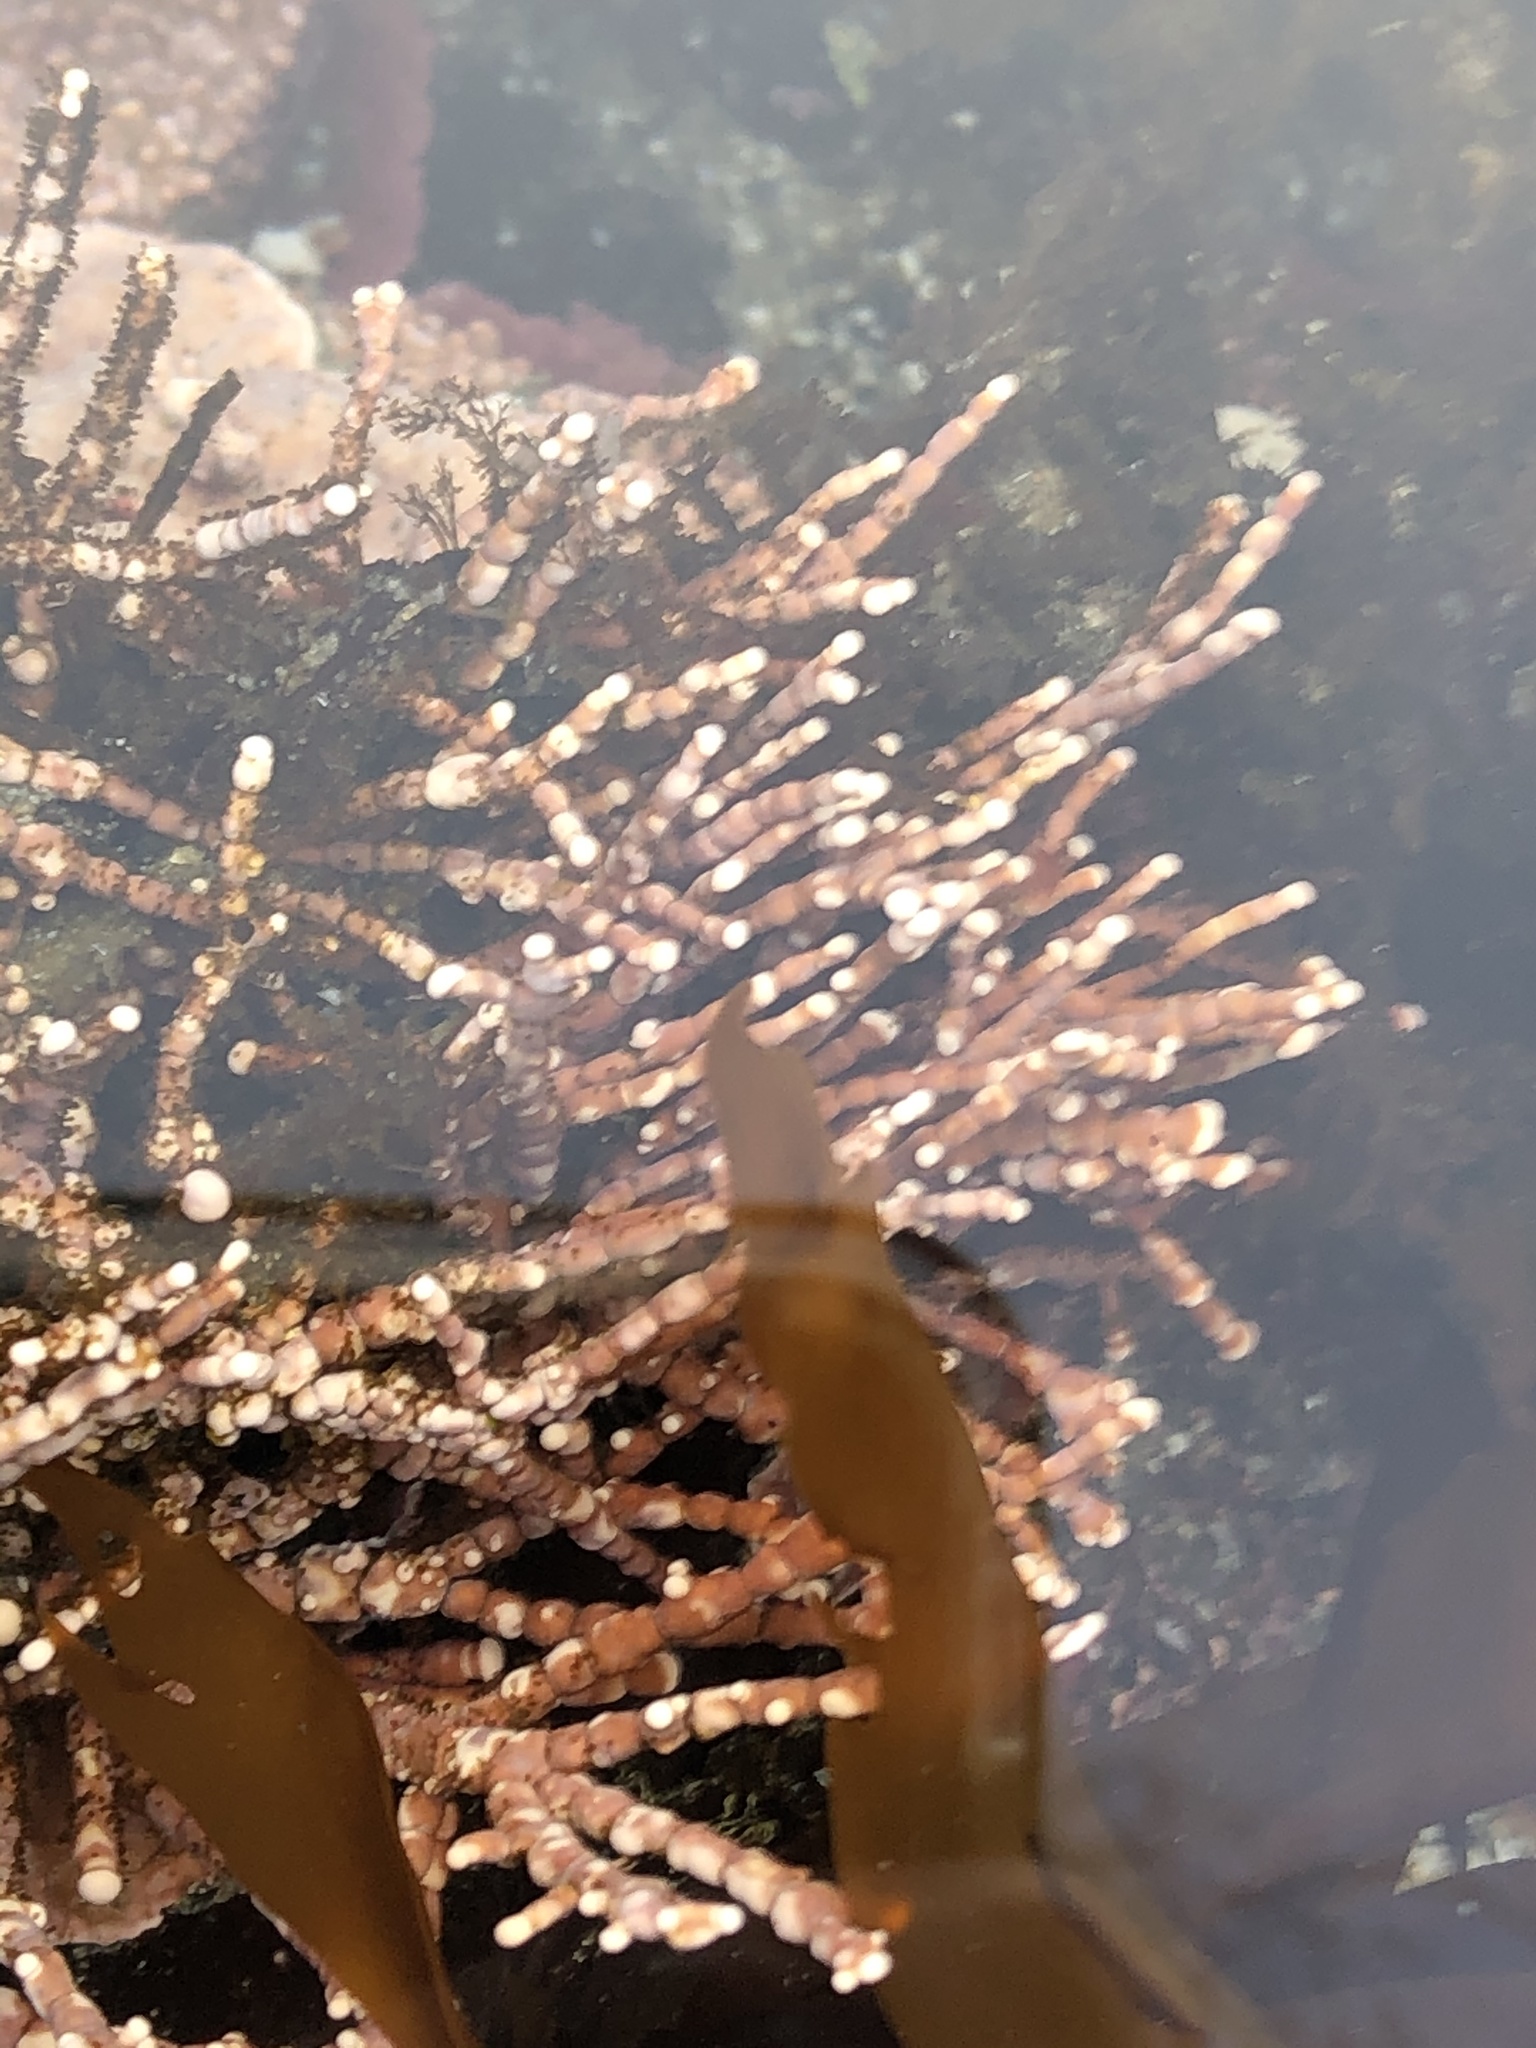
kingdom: Plantae
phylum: Rhodophyta
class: Florideophyceae
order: Corallinales
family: Corallinaceae
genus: Calliarthron
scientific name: Calliarthron tuberculosum
